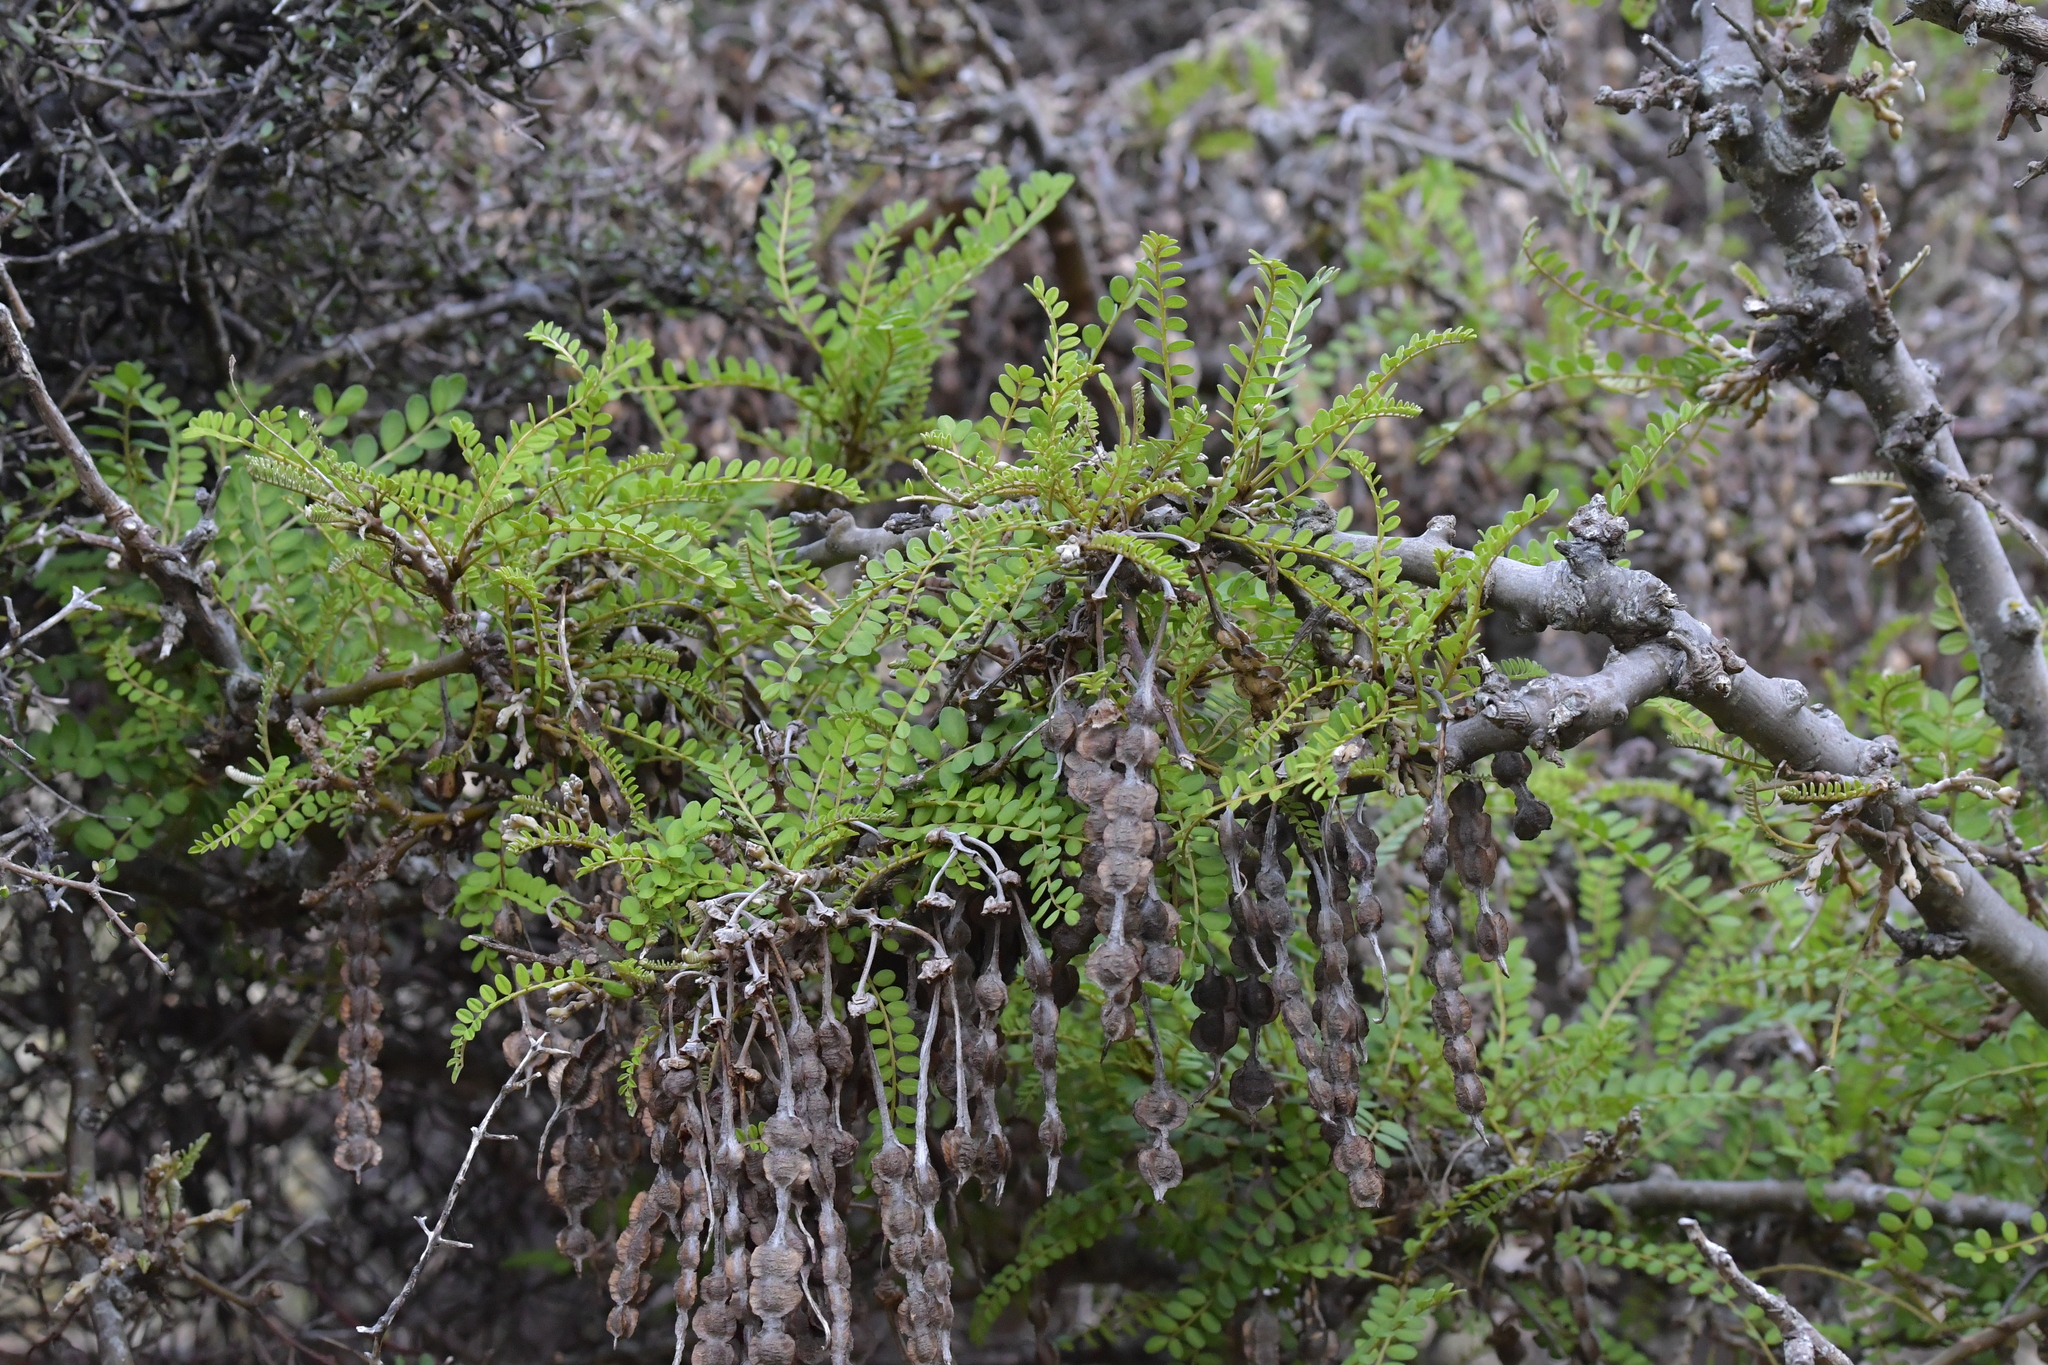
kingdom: Plantae
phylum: Tracheophyta
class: Magnoliopsida
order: Fabales
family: Fabaceae
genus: Sophora
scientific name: Sophora molloyi
